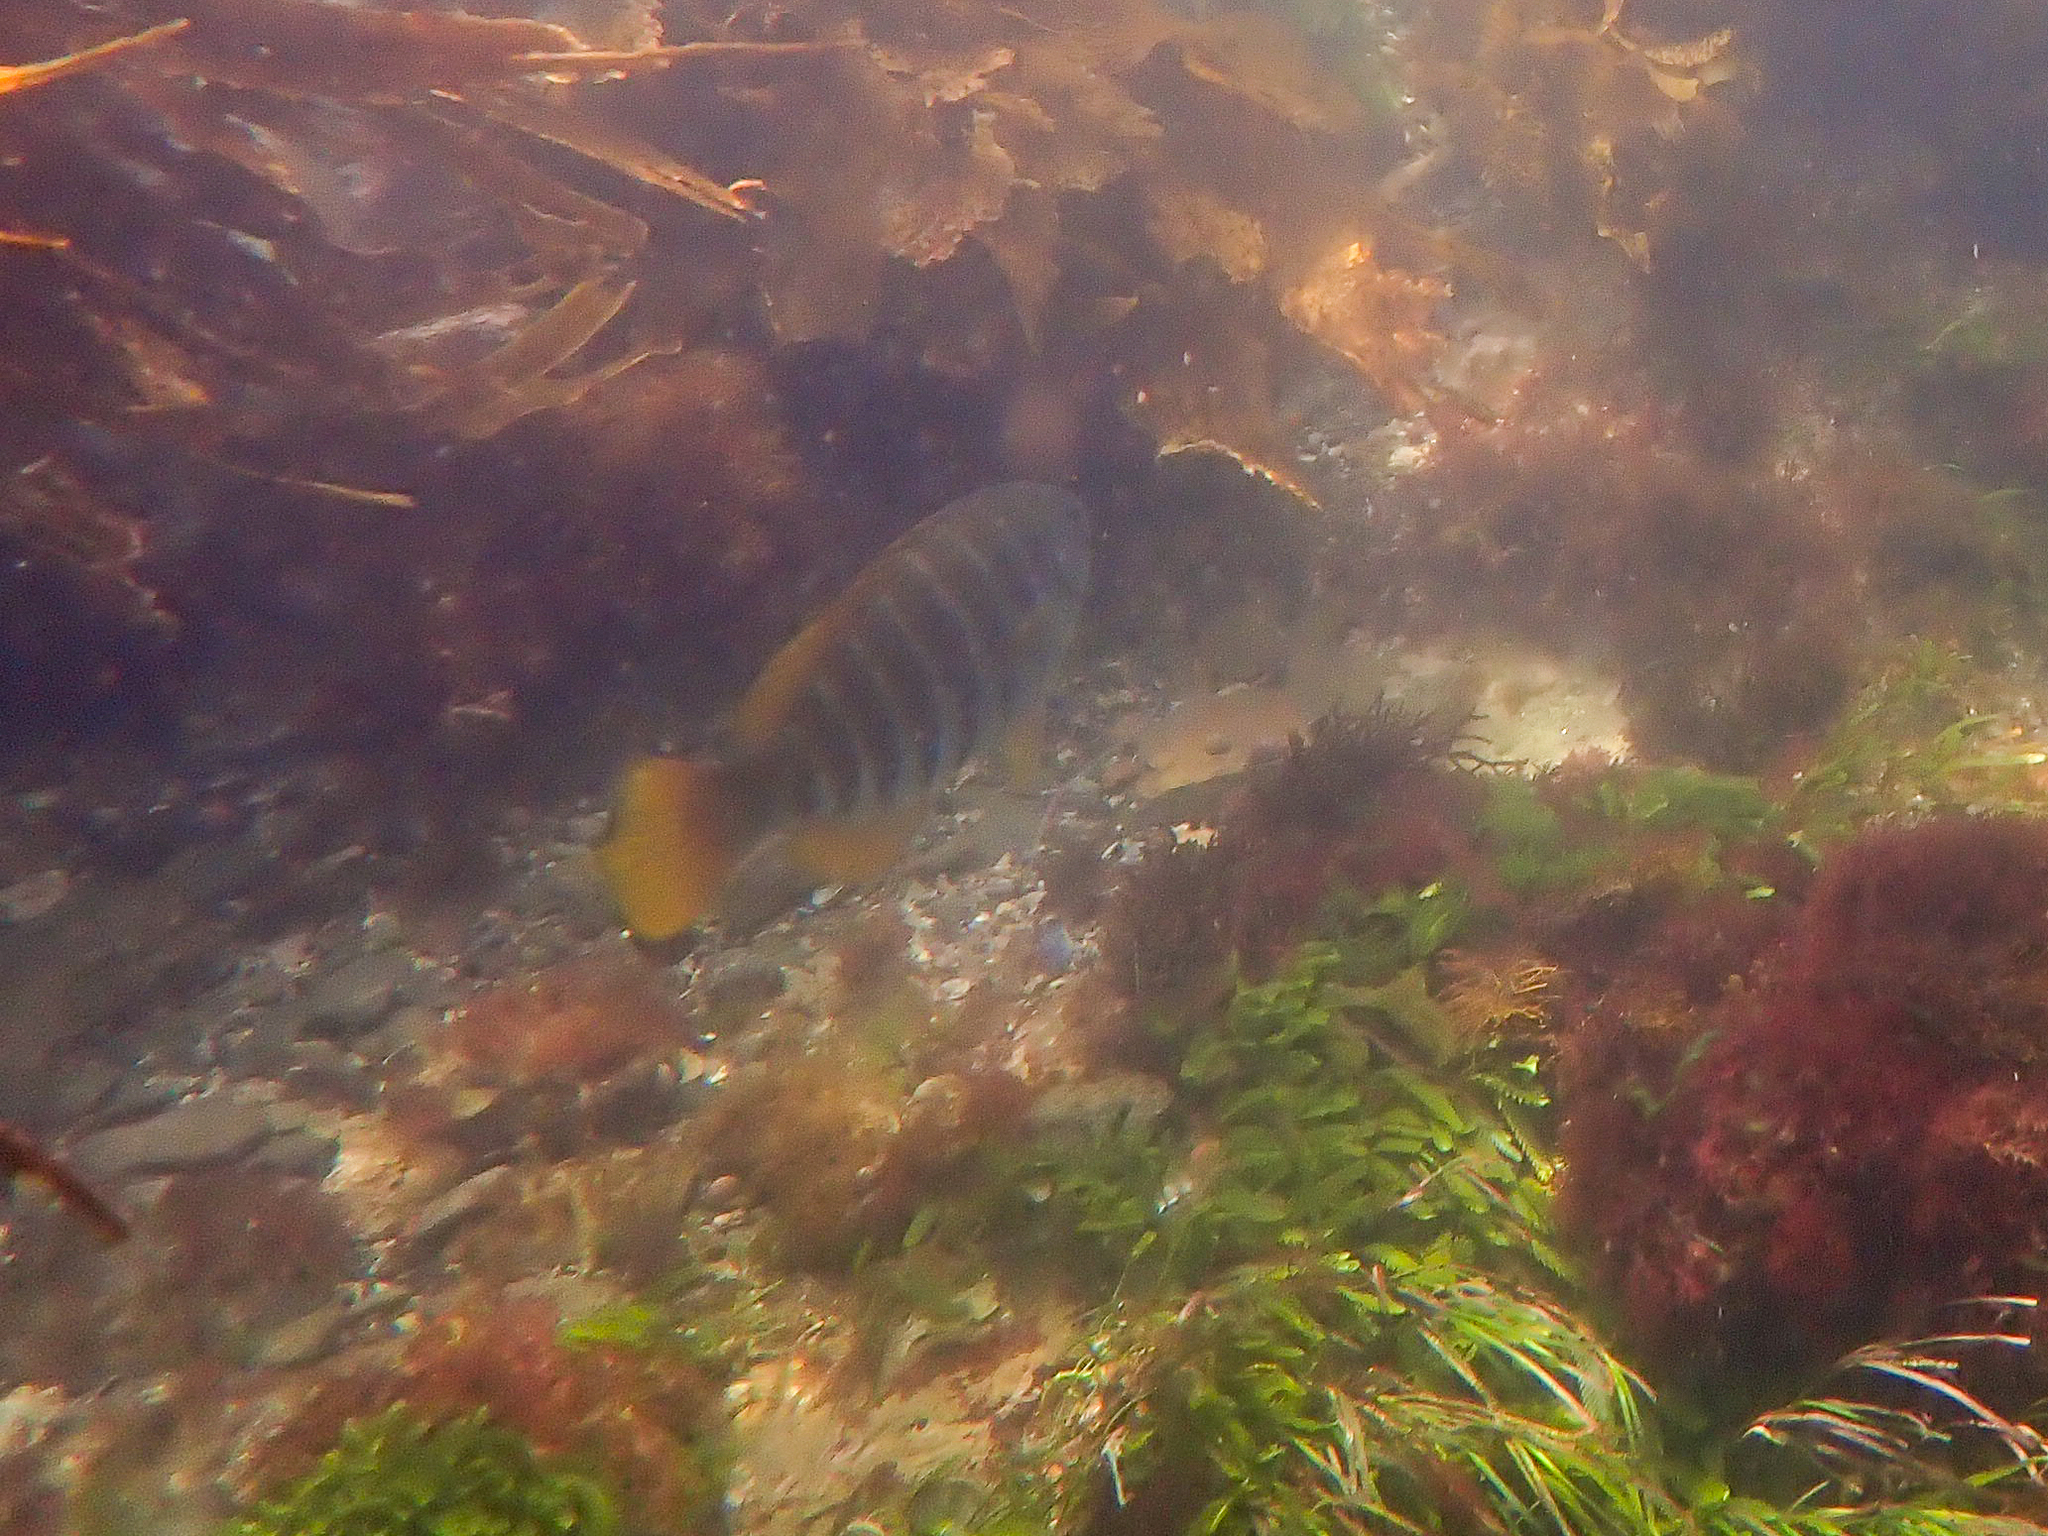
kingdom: Animalia
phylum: Chordata
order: Perciformes
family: Kyphosidae
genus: Girella
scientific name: Girella zebra
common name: Stripey bream
